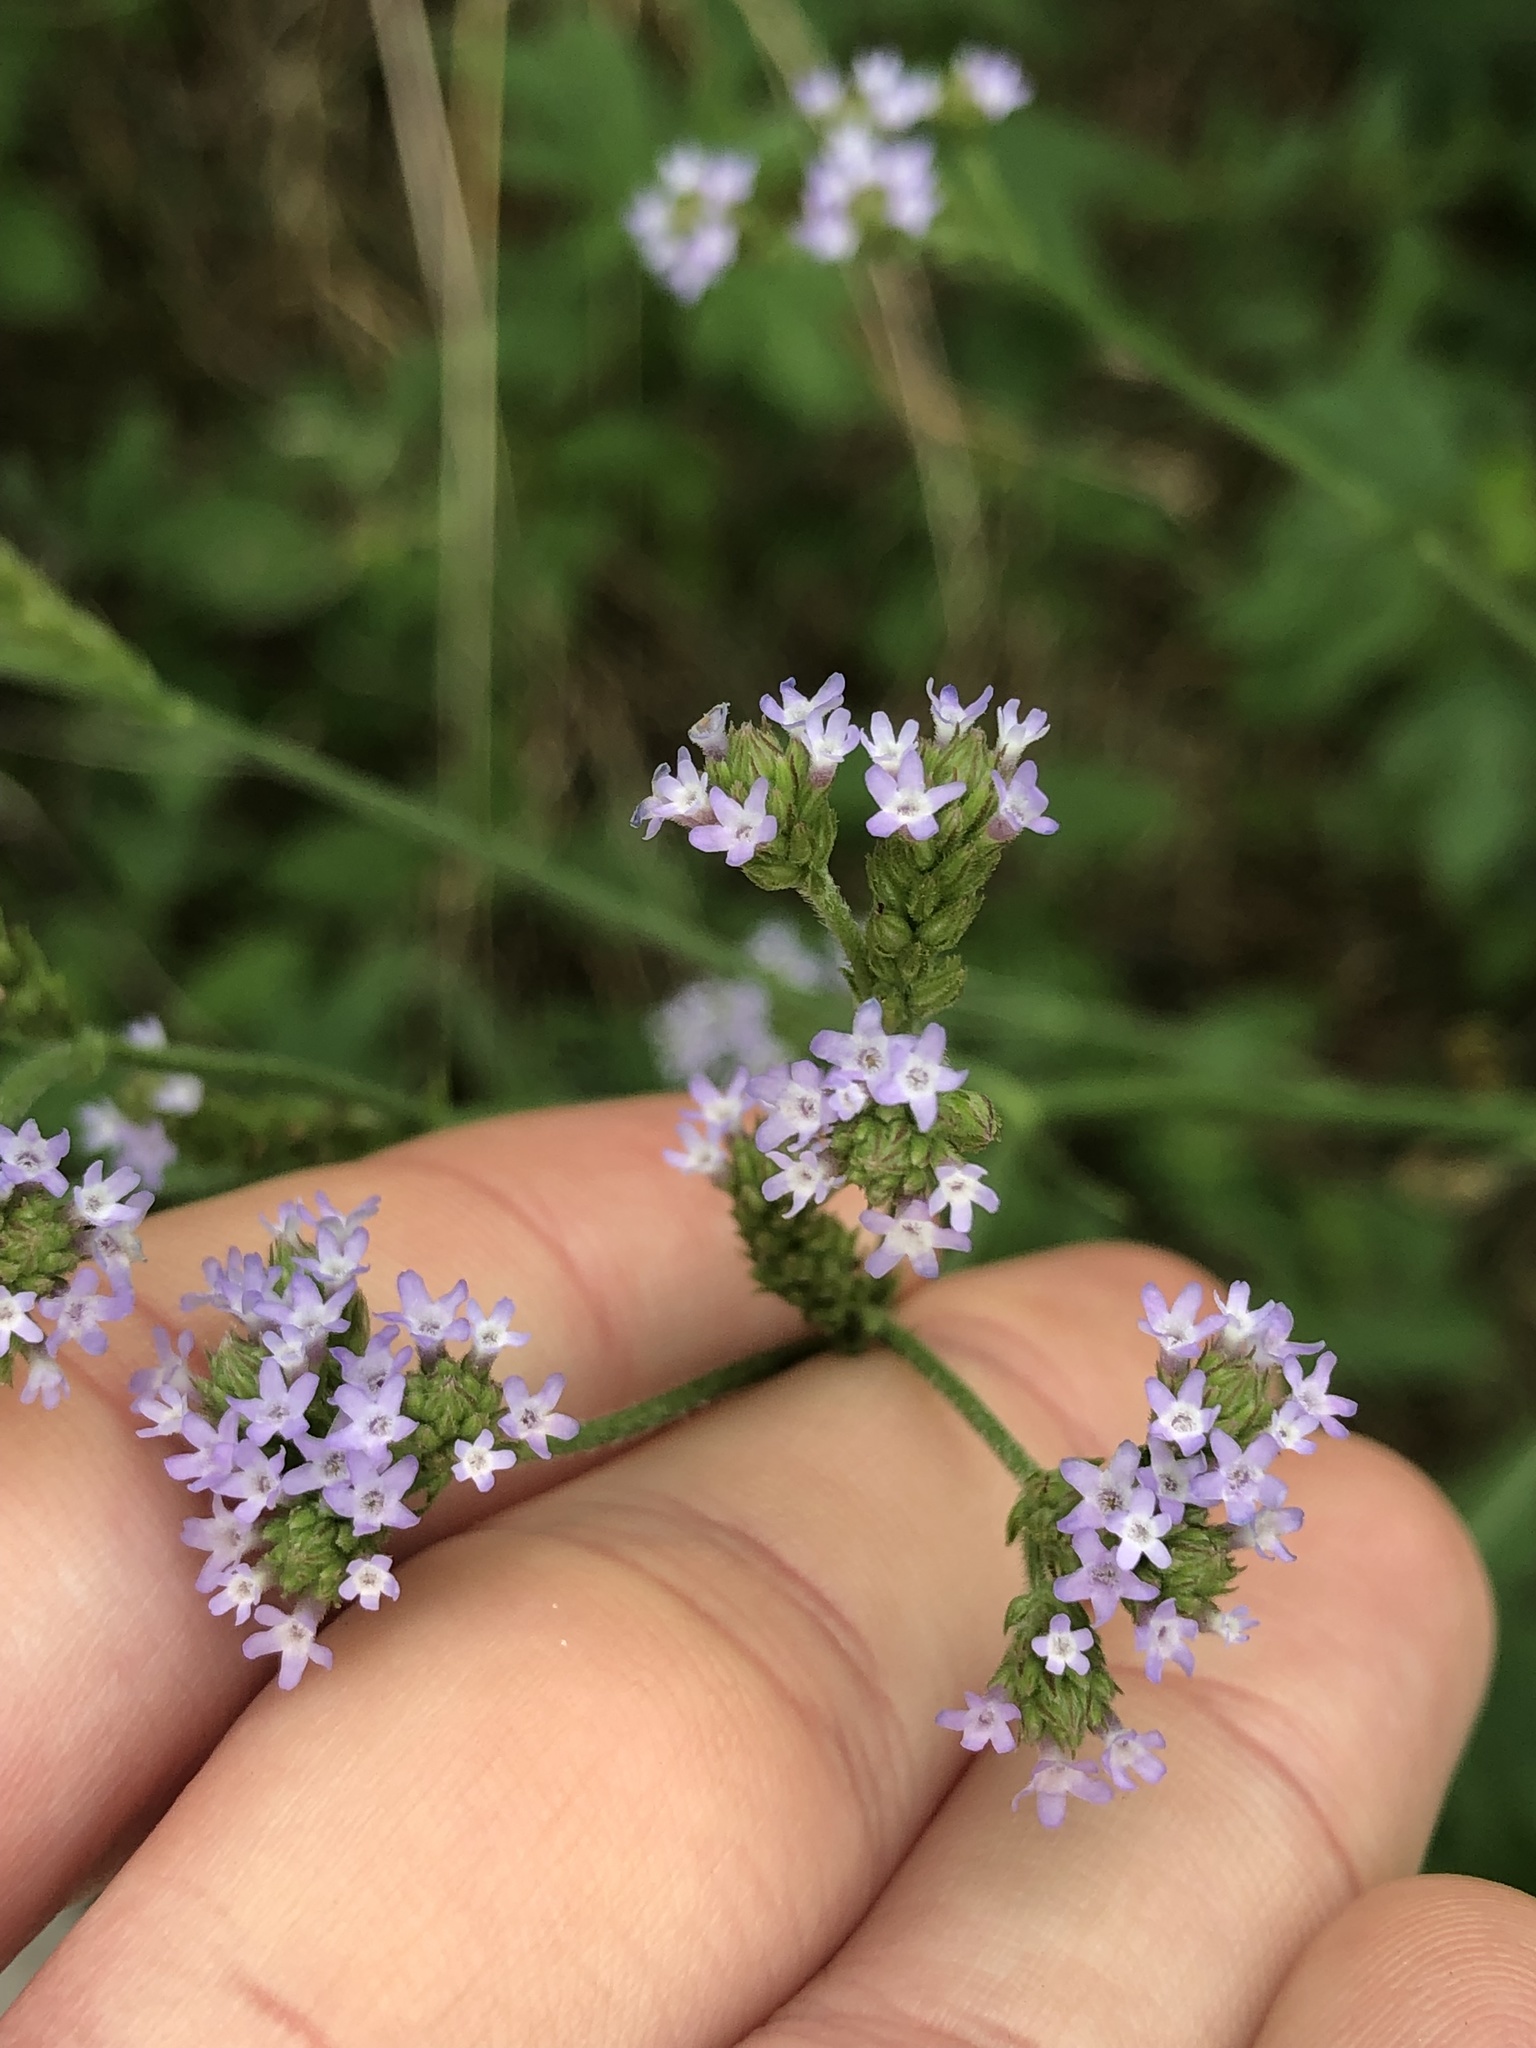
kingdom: Plantae
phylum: Tracheophyta
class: Magnoliopsida
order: Lamiales
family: Verbenaceae
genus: Verbena
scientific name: Verbena brasiliensis
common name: Brazilian vervain
